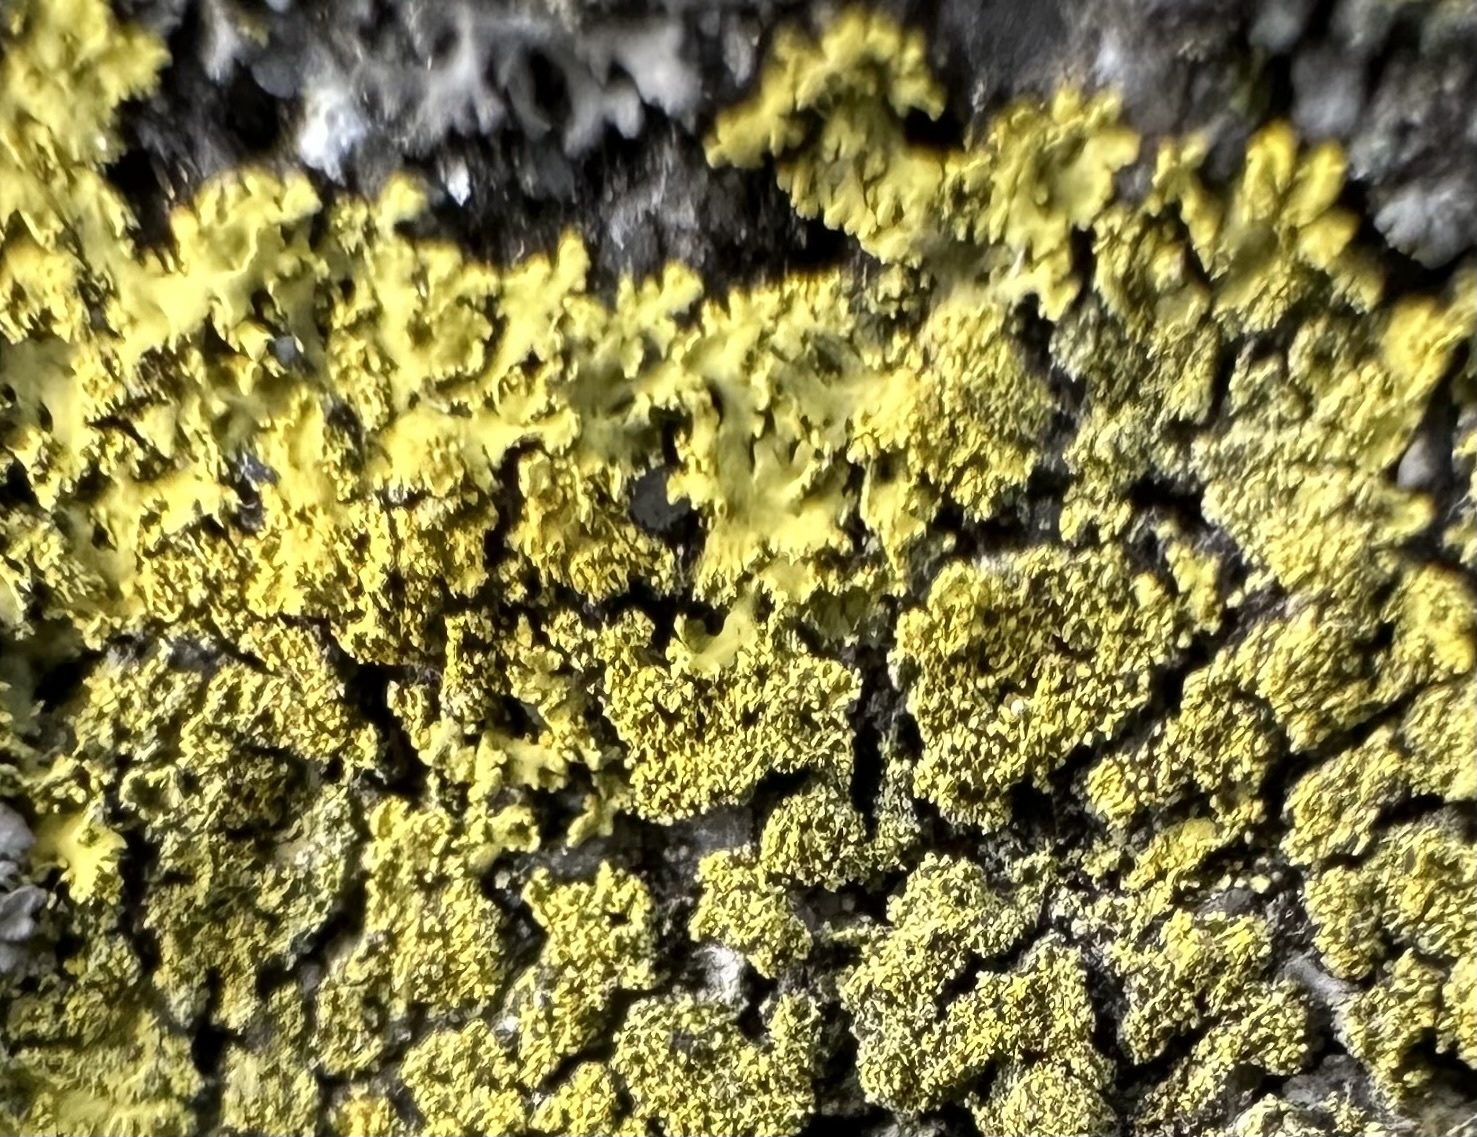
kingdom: Fungi
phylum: Ascomycota
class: Candelariomycetes
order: Candelariales
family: Candelariaceae
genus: Candelaria
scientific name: Candelaria concolor
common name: Candleflame lichen
